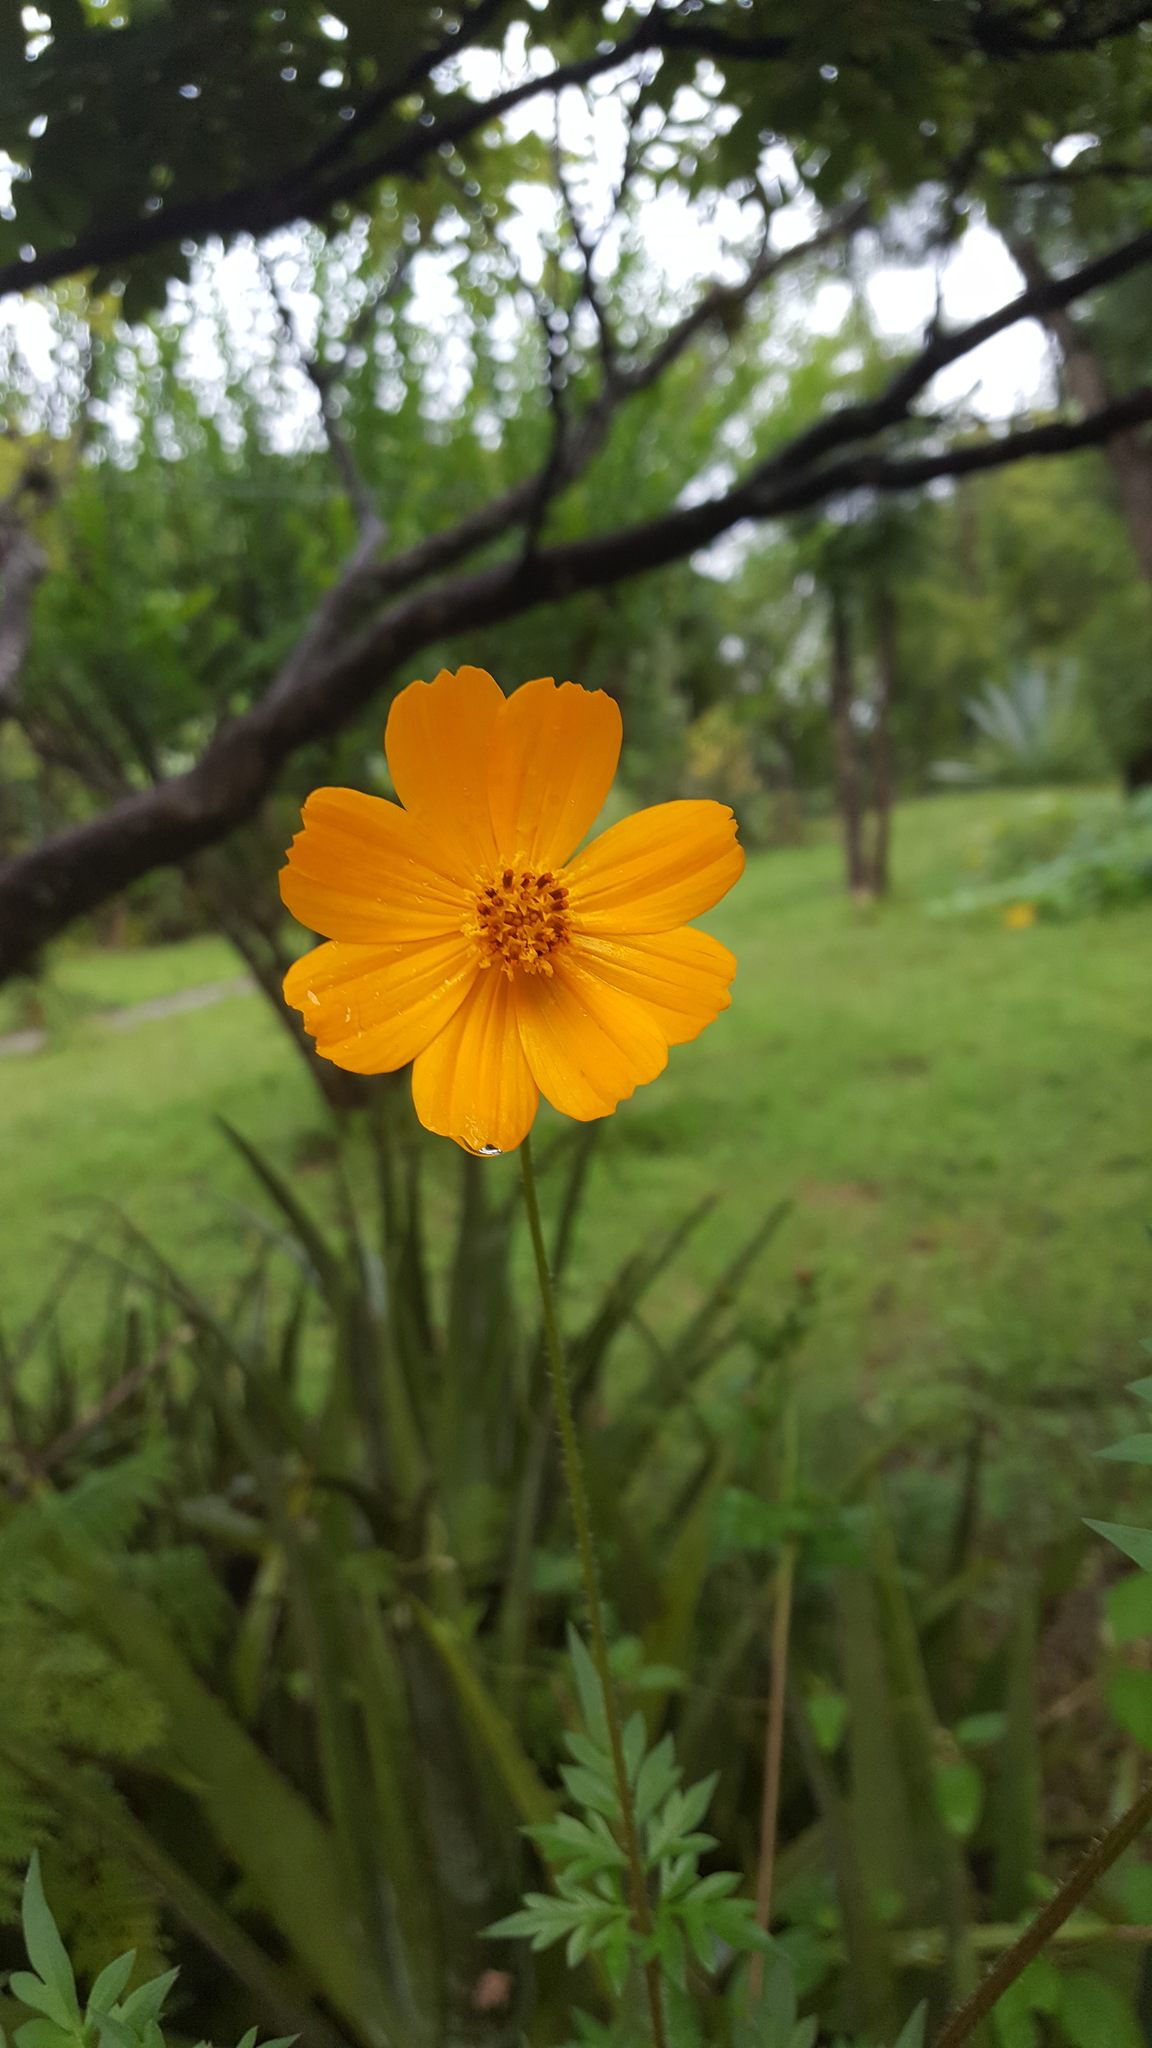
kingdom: Plantae
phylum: Tracheophyta
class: Magnoliopsida
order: Asterales
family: Asteraceae
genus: Cosmos
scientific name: Cosmos sulphureus
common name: Sulphur cosmos
